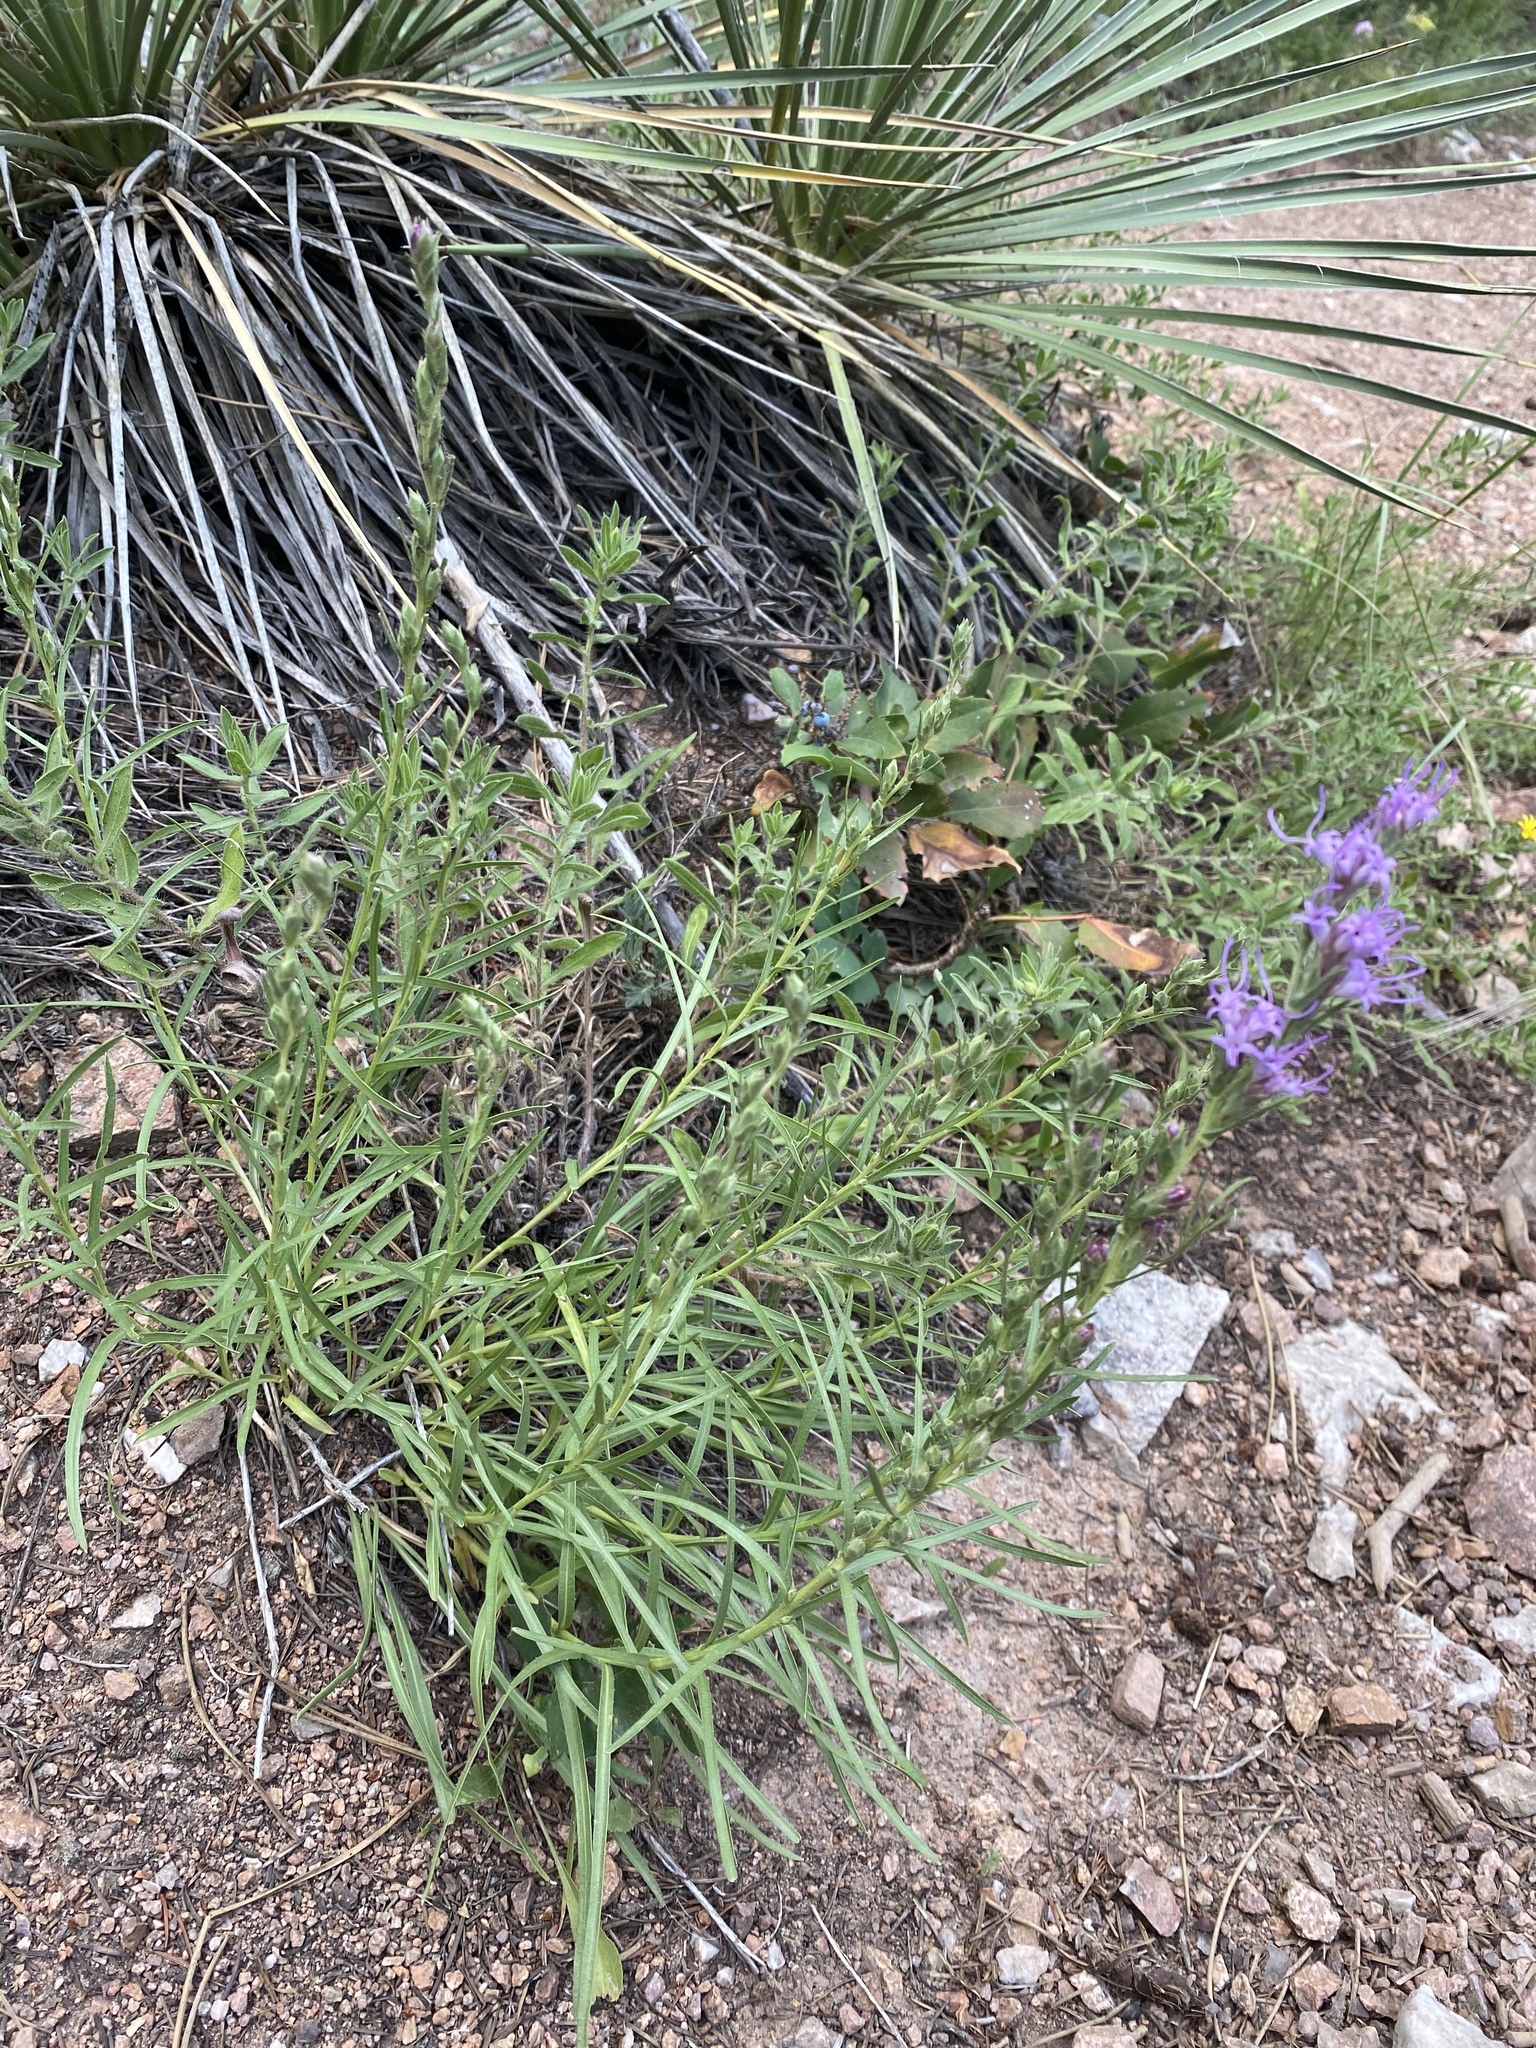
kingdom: Plantae
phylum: Tracheophyta
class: Magnoliopsida
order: Asterales
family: Asteraceae
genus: Liatris
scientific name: Liatris punctata
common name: Dotted gayfeather
